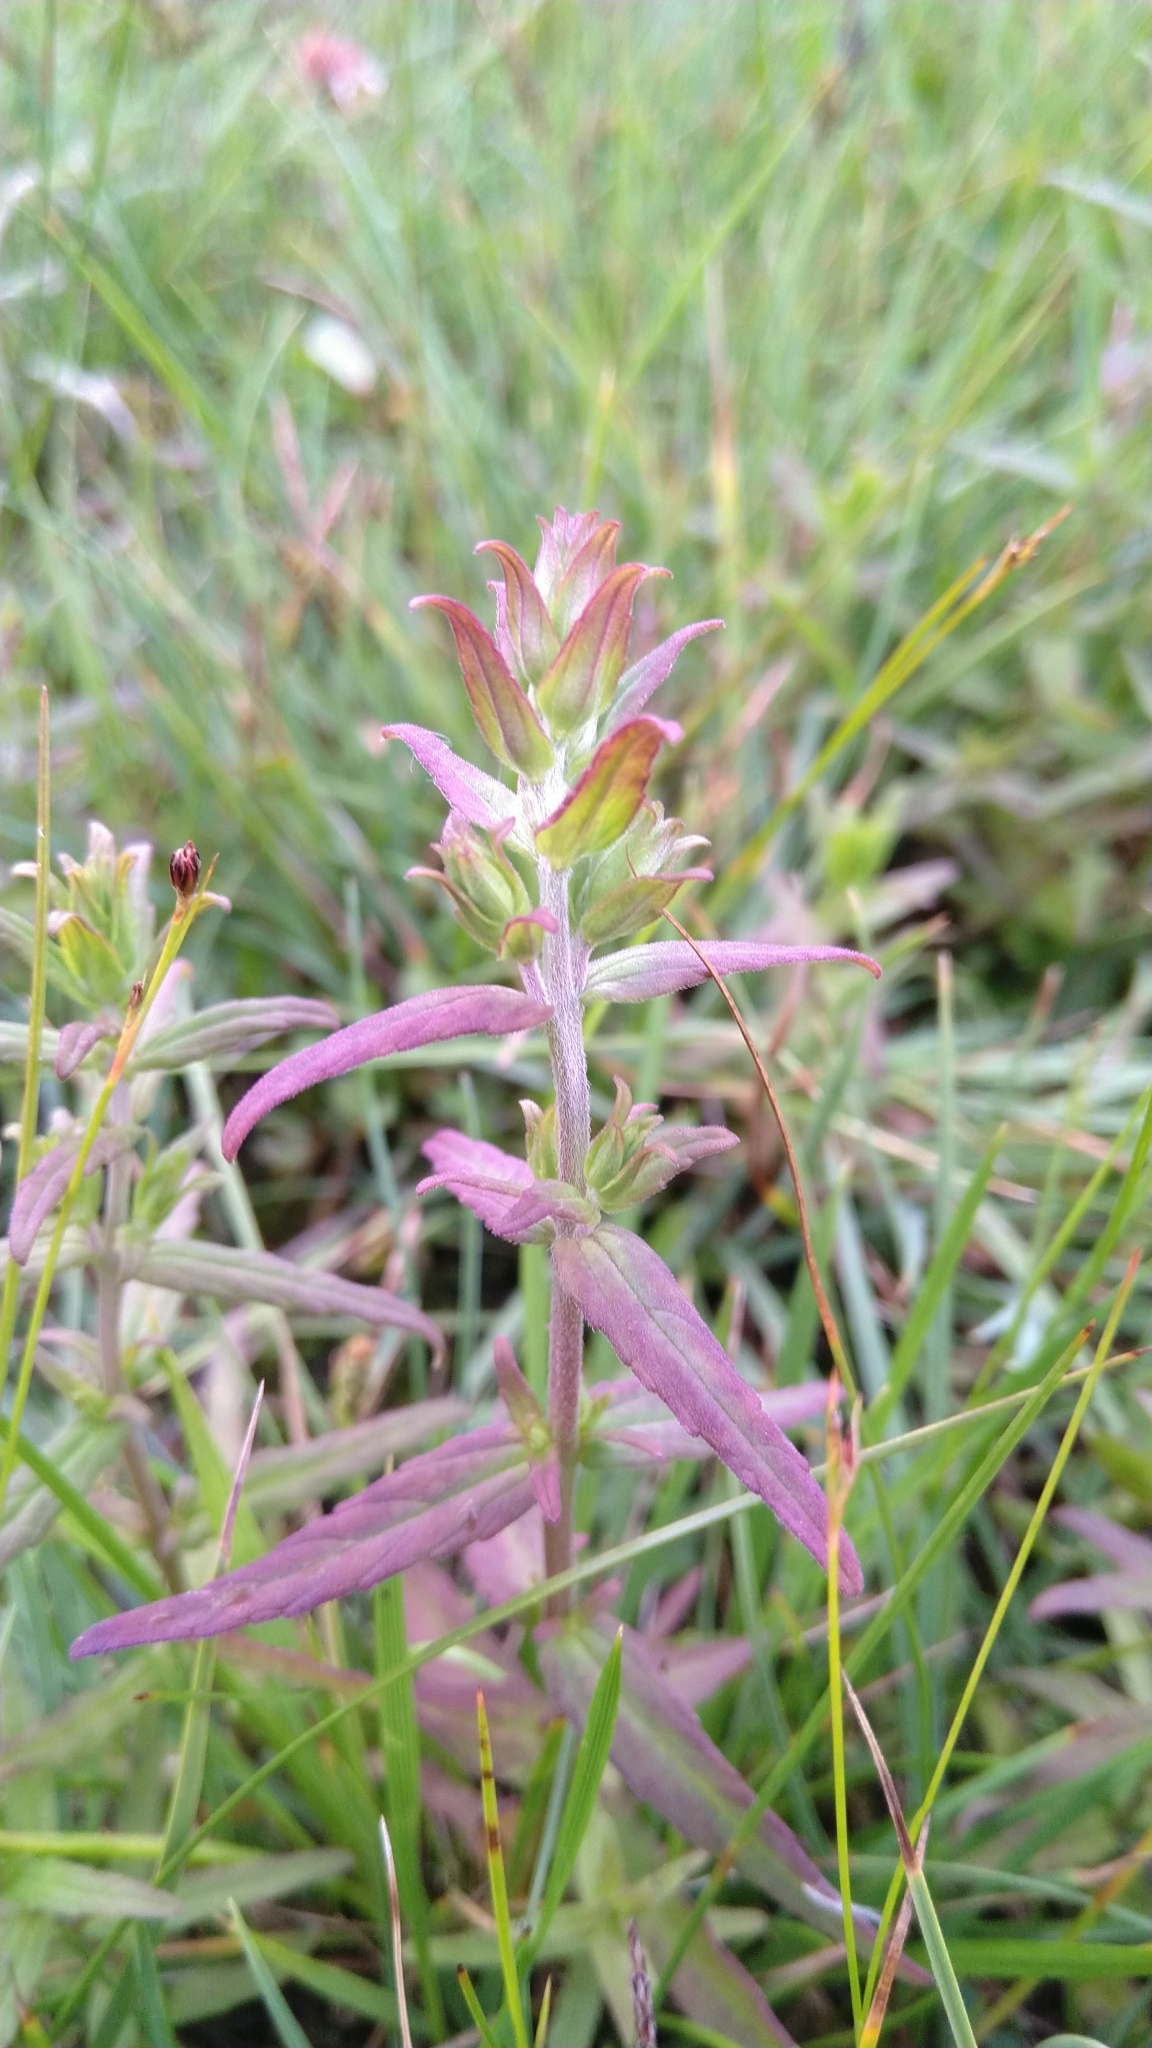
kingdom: Plantae
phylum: Tracheophyta
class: Magnoliopsida
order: Lamiales
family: Orobanchaceae
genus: Odontites
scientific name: Odontites vulgaris
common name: Broomrape
